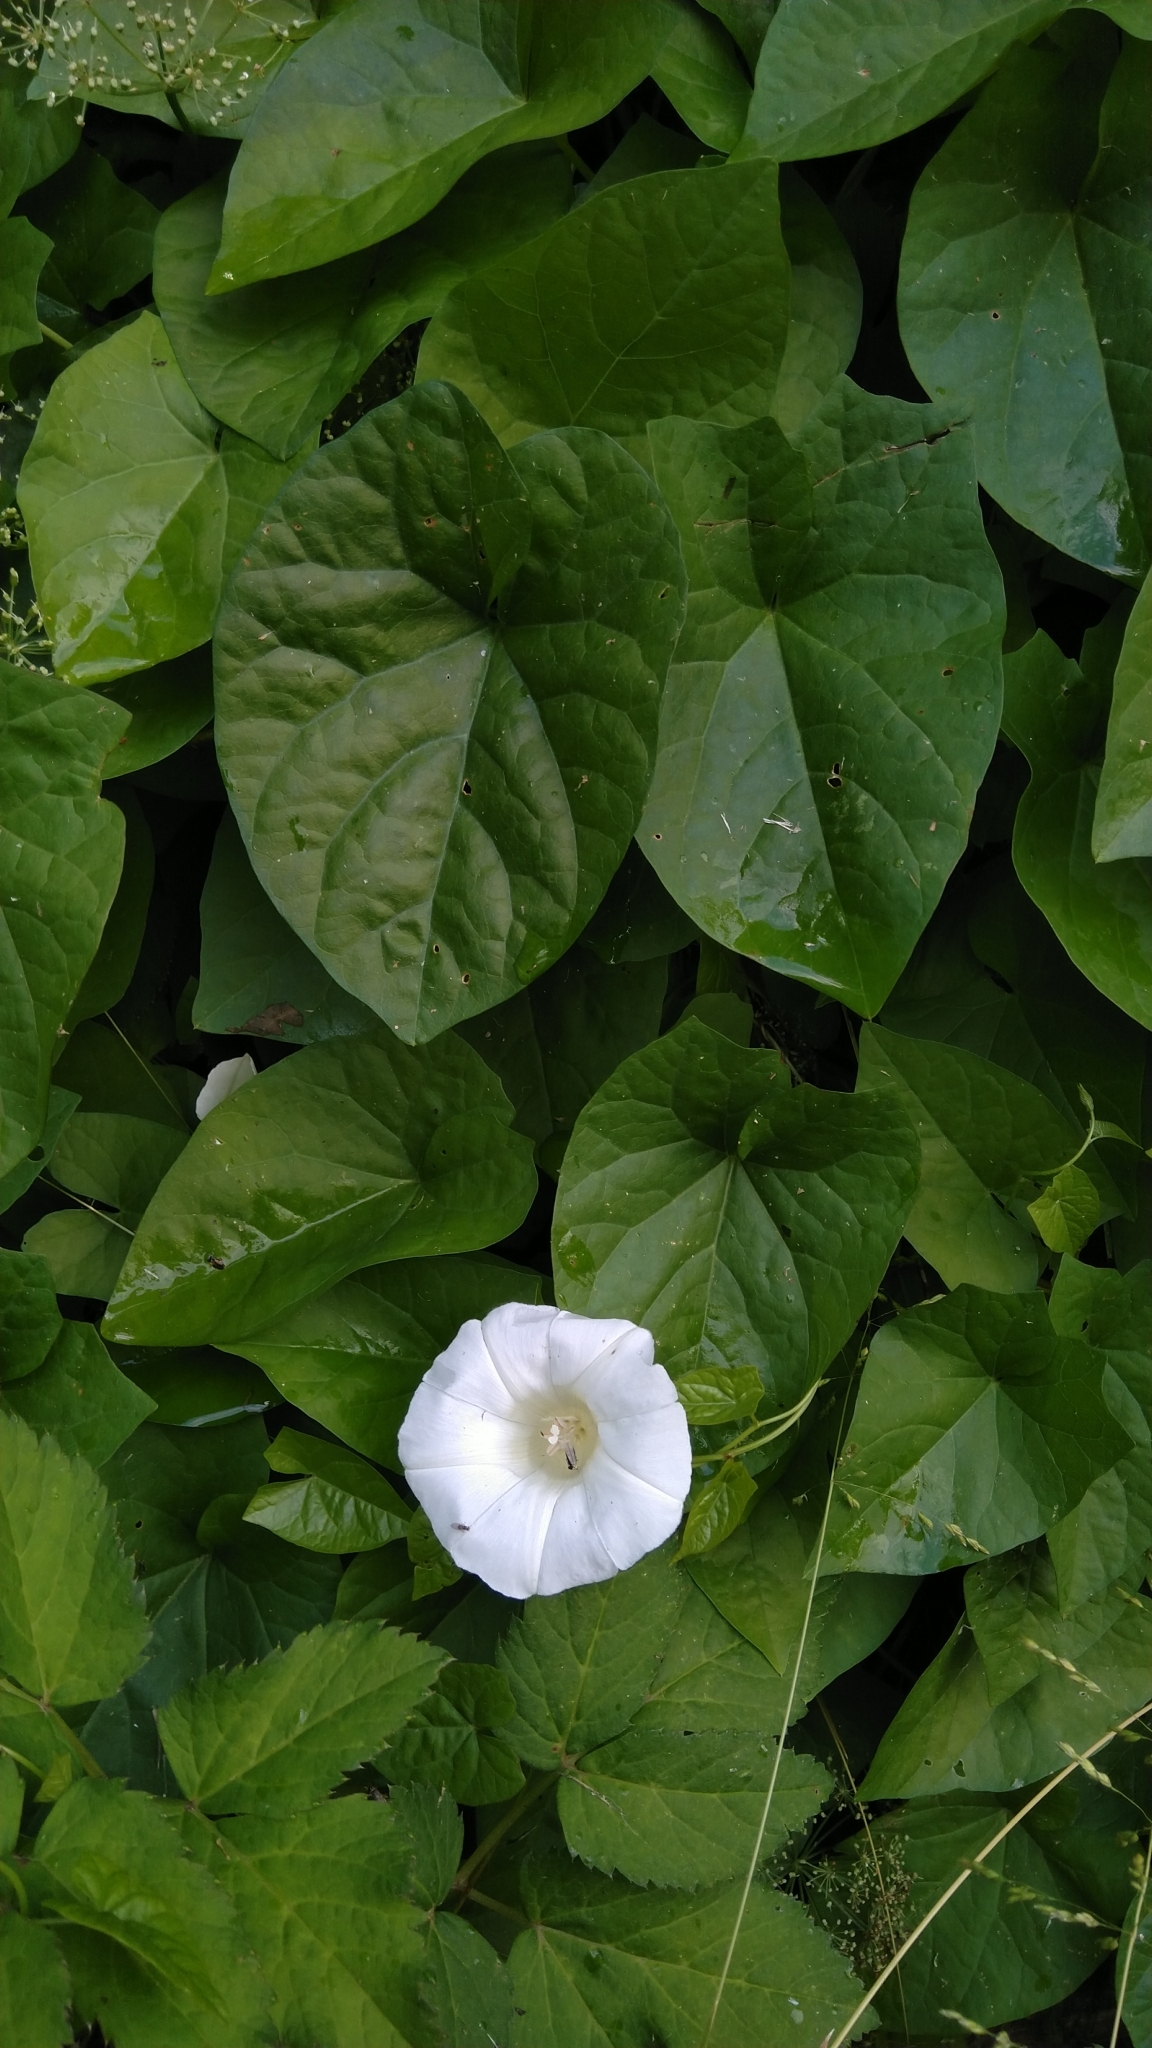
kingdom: Plantae
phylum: Tracheophyta
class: Magnoliopsida
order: Solanales
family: Convolvulaceae
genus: Calystegia
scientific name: Calystegia sepium
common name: Hedge bindweed
